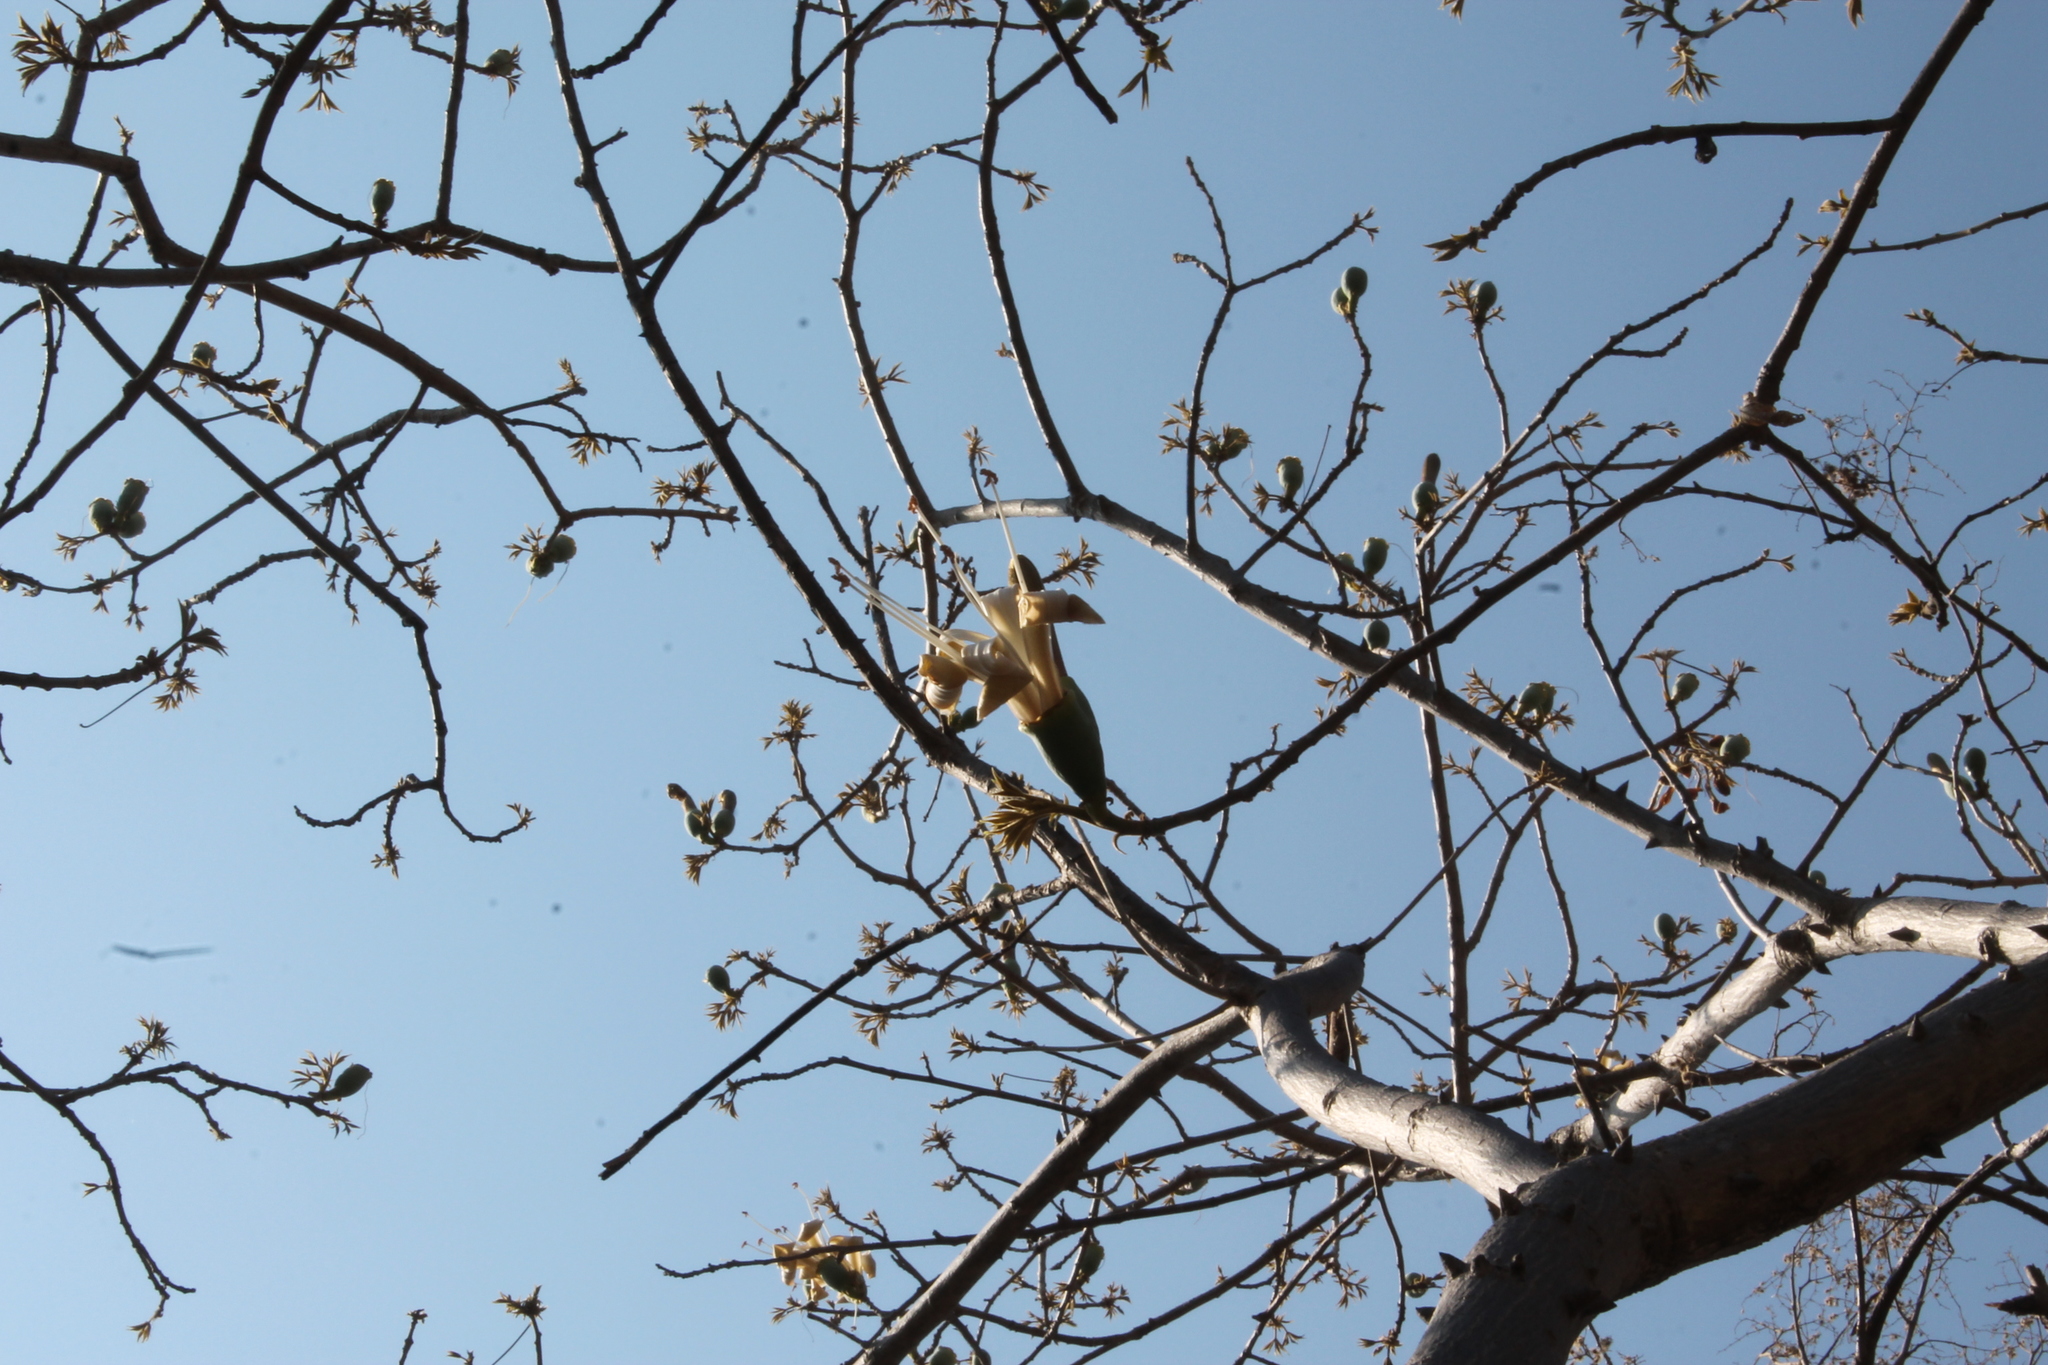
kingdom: Plantae
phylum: Tracheophyta
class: Magnoliopsida
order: Malvales
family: Malvaceae
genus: Ceiba
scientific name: Ceiba aesculifolia
